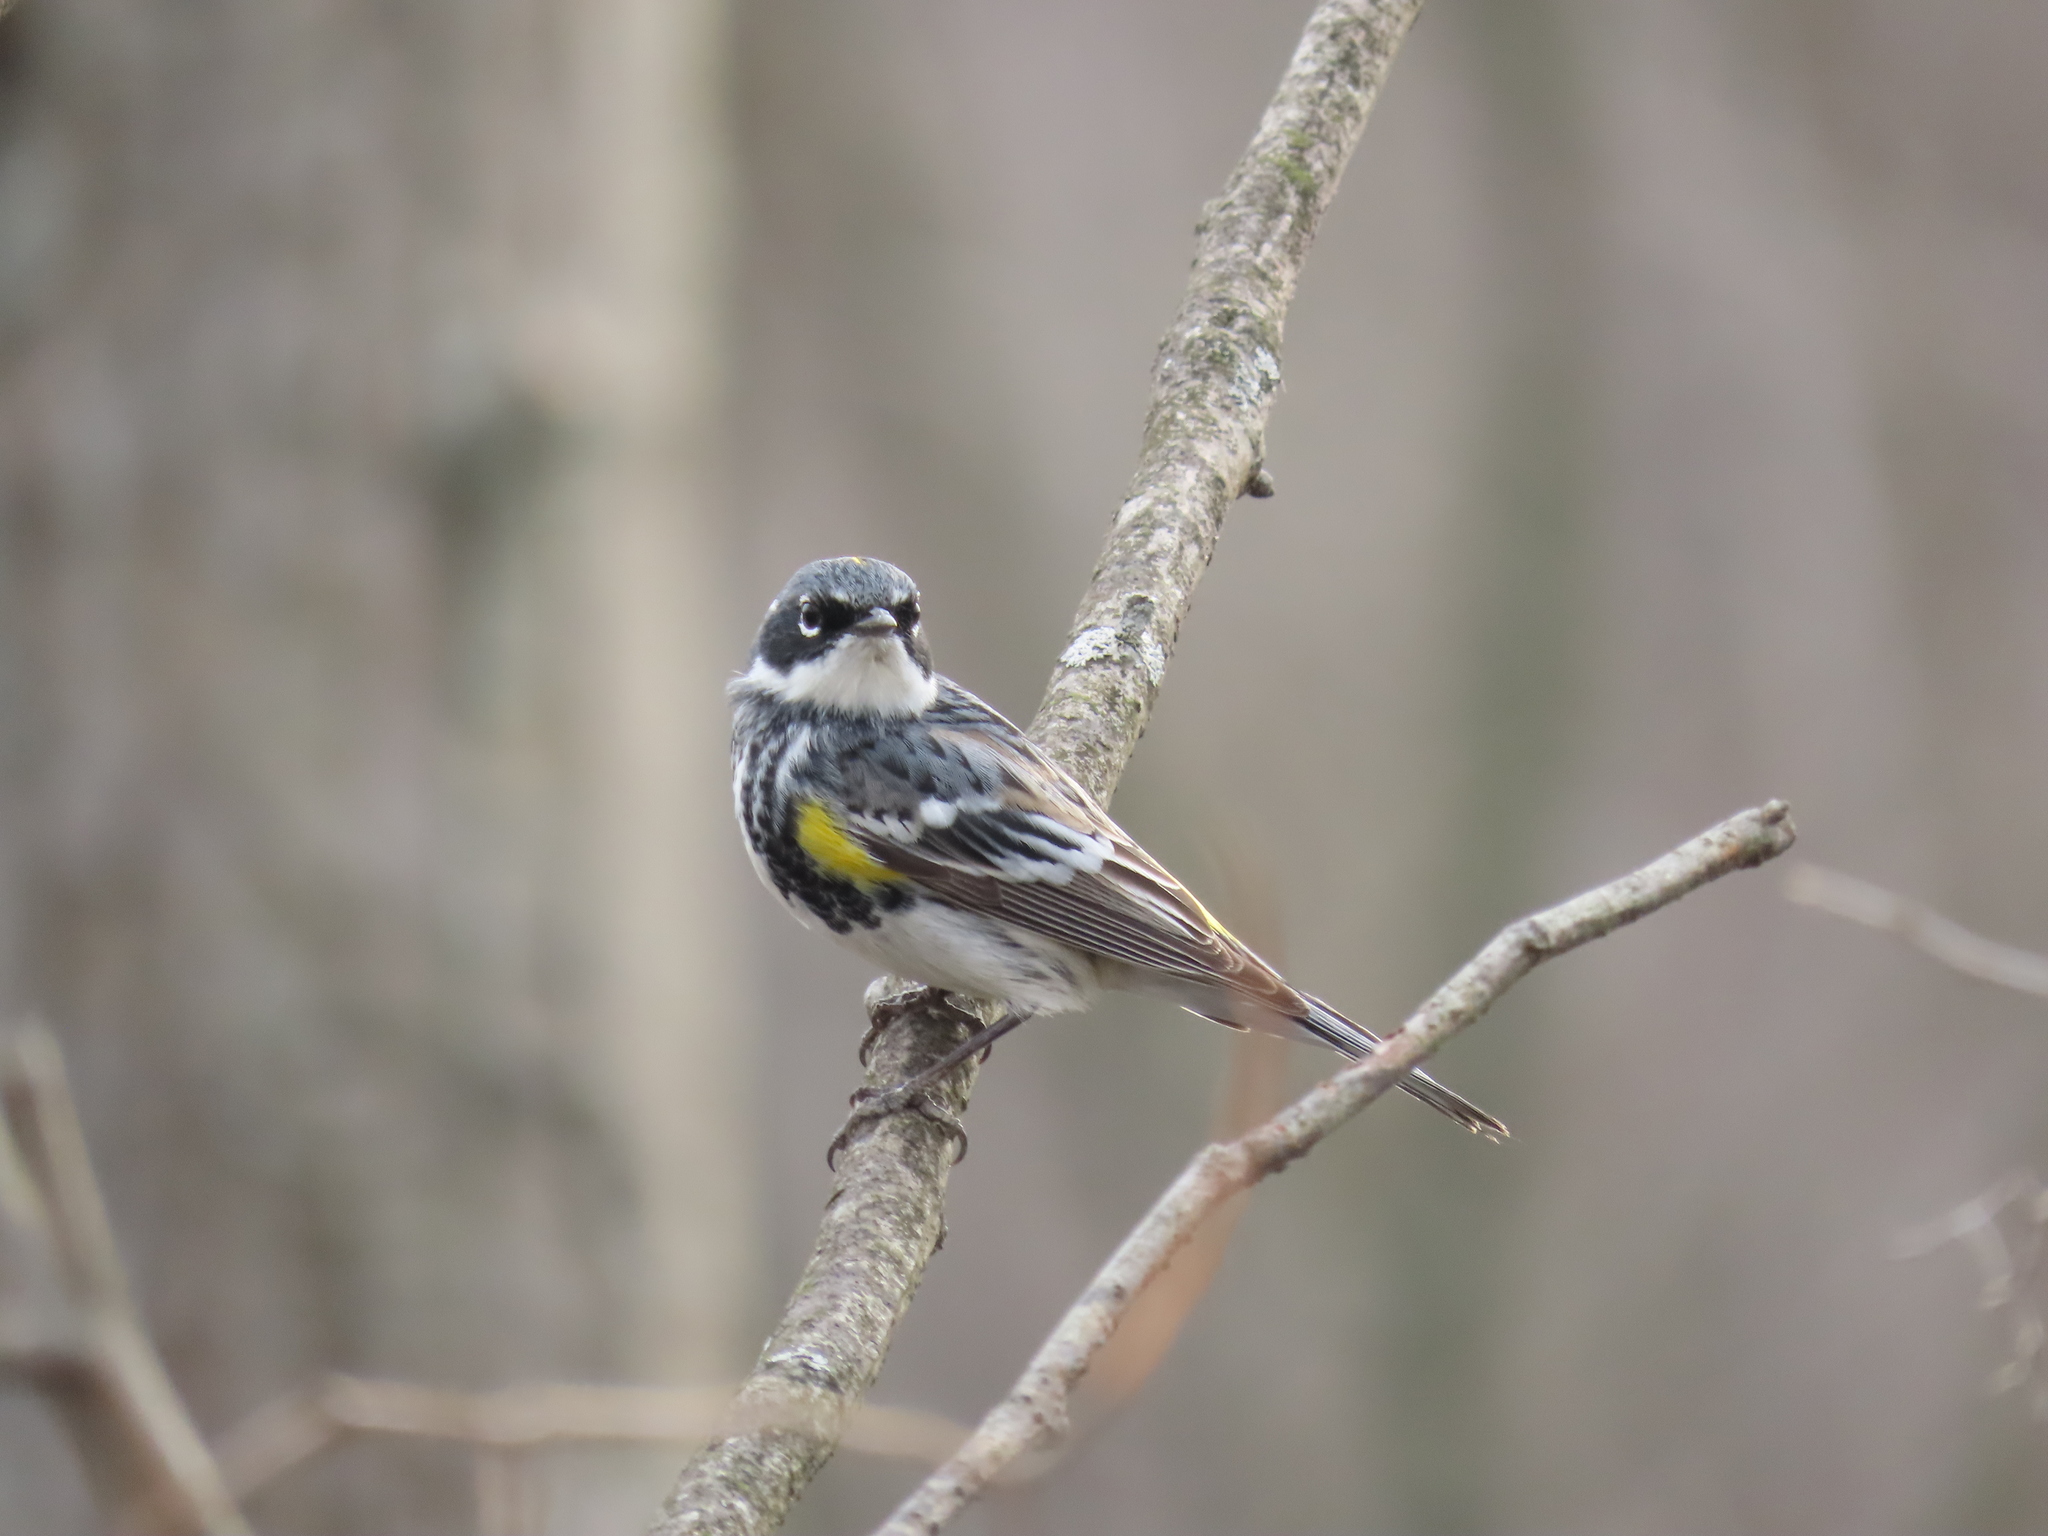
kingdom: Animalia
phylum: Chordata
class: Aves
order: Passeriformes
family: Parulidae
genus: Setophaga
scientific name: Setophaga coronata
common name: Myrtle warbler
